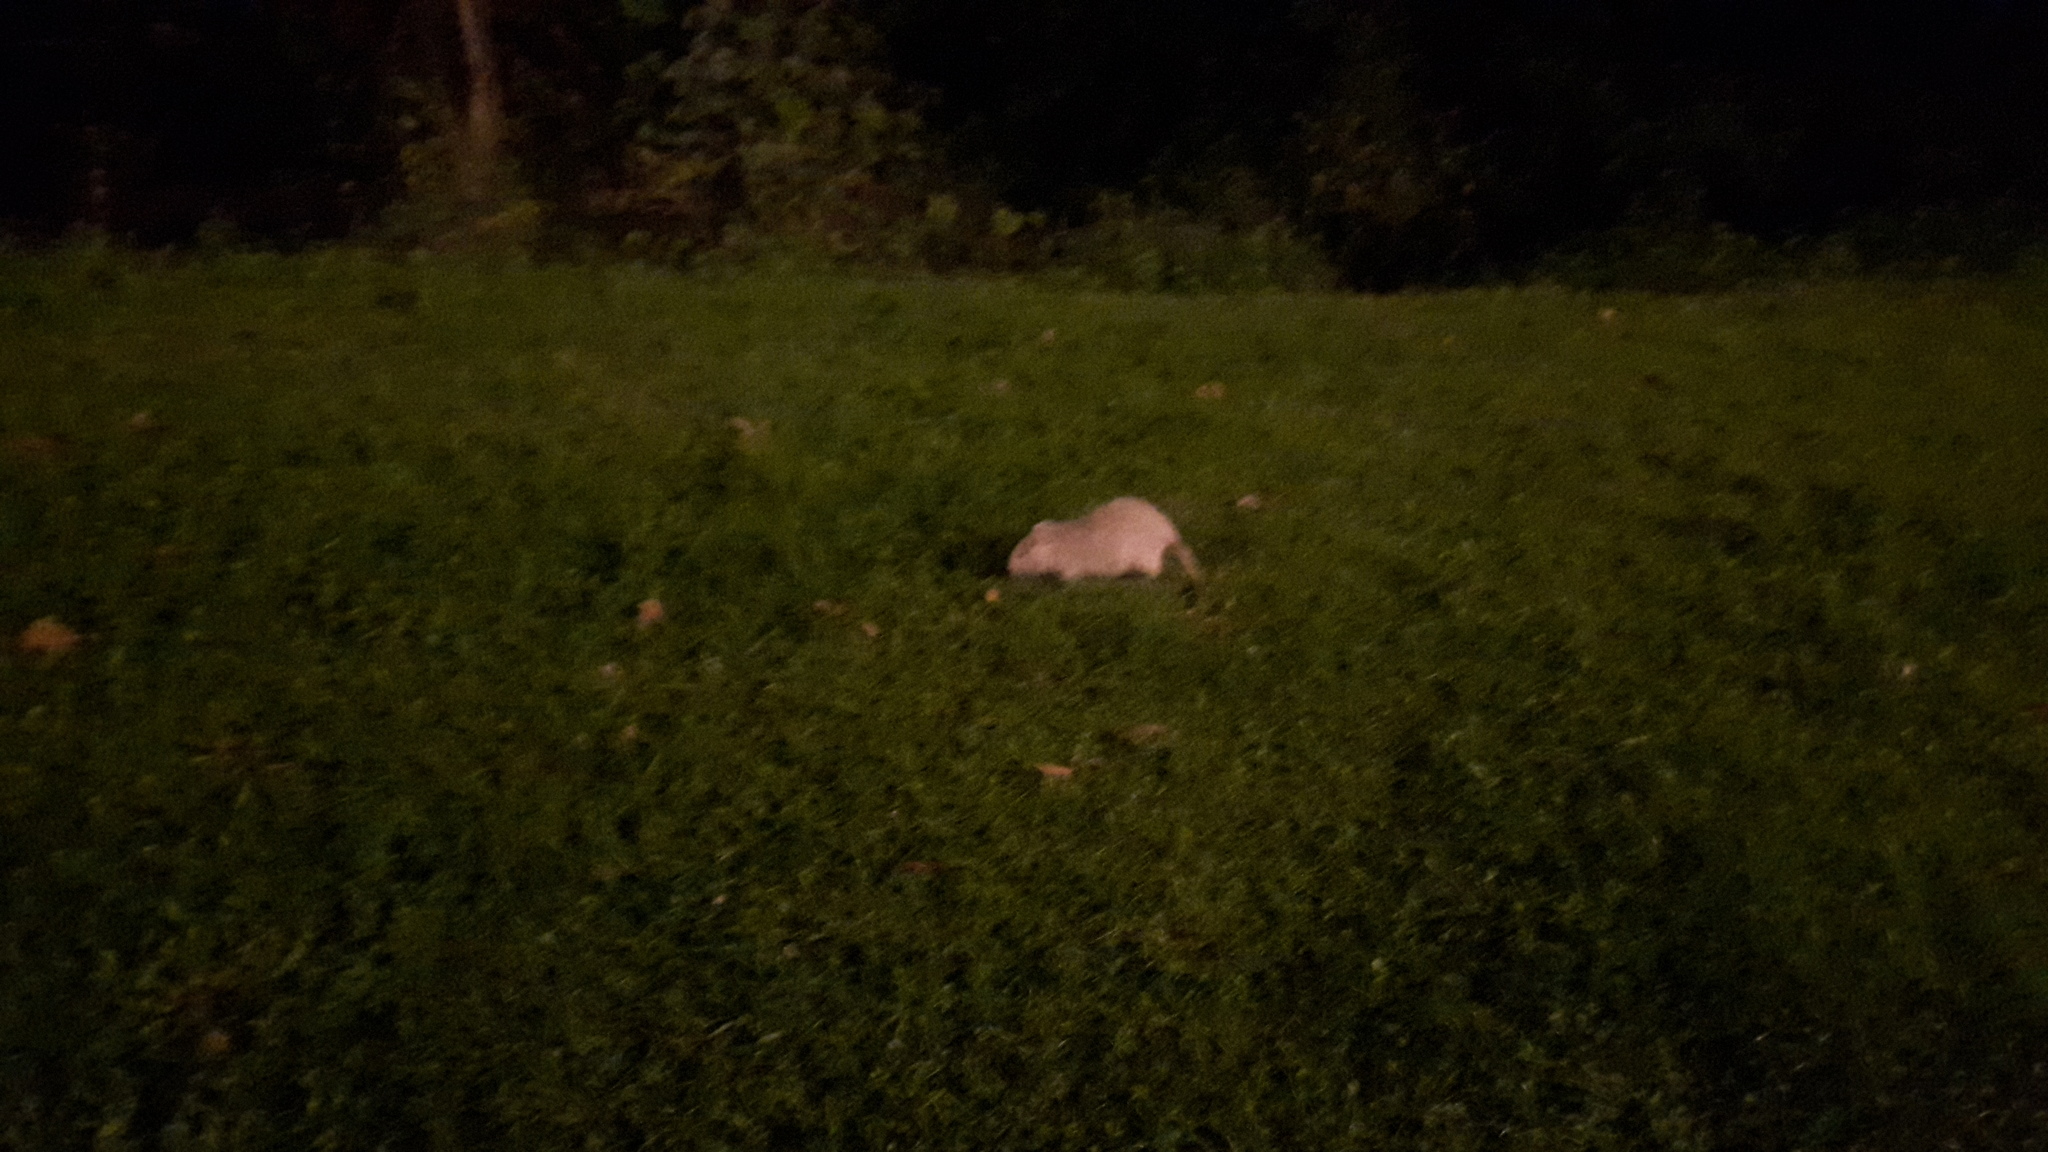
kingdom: Animalia
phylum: Chordata
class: Mammalia
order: Rodentia
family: Myocastoridae
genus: Myocastor
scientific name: Myocastor coypus
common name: Coypu
